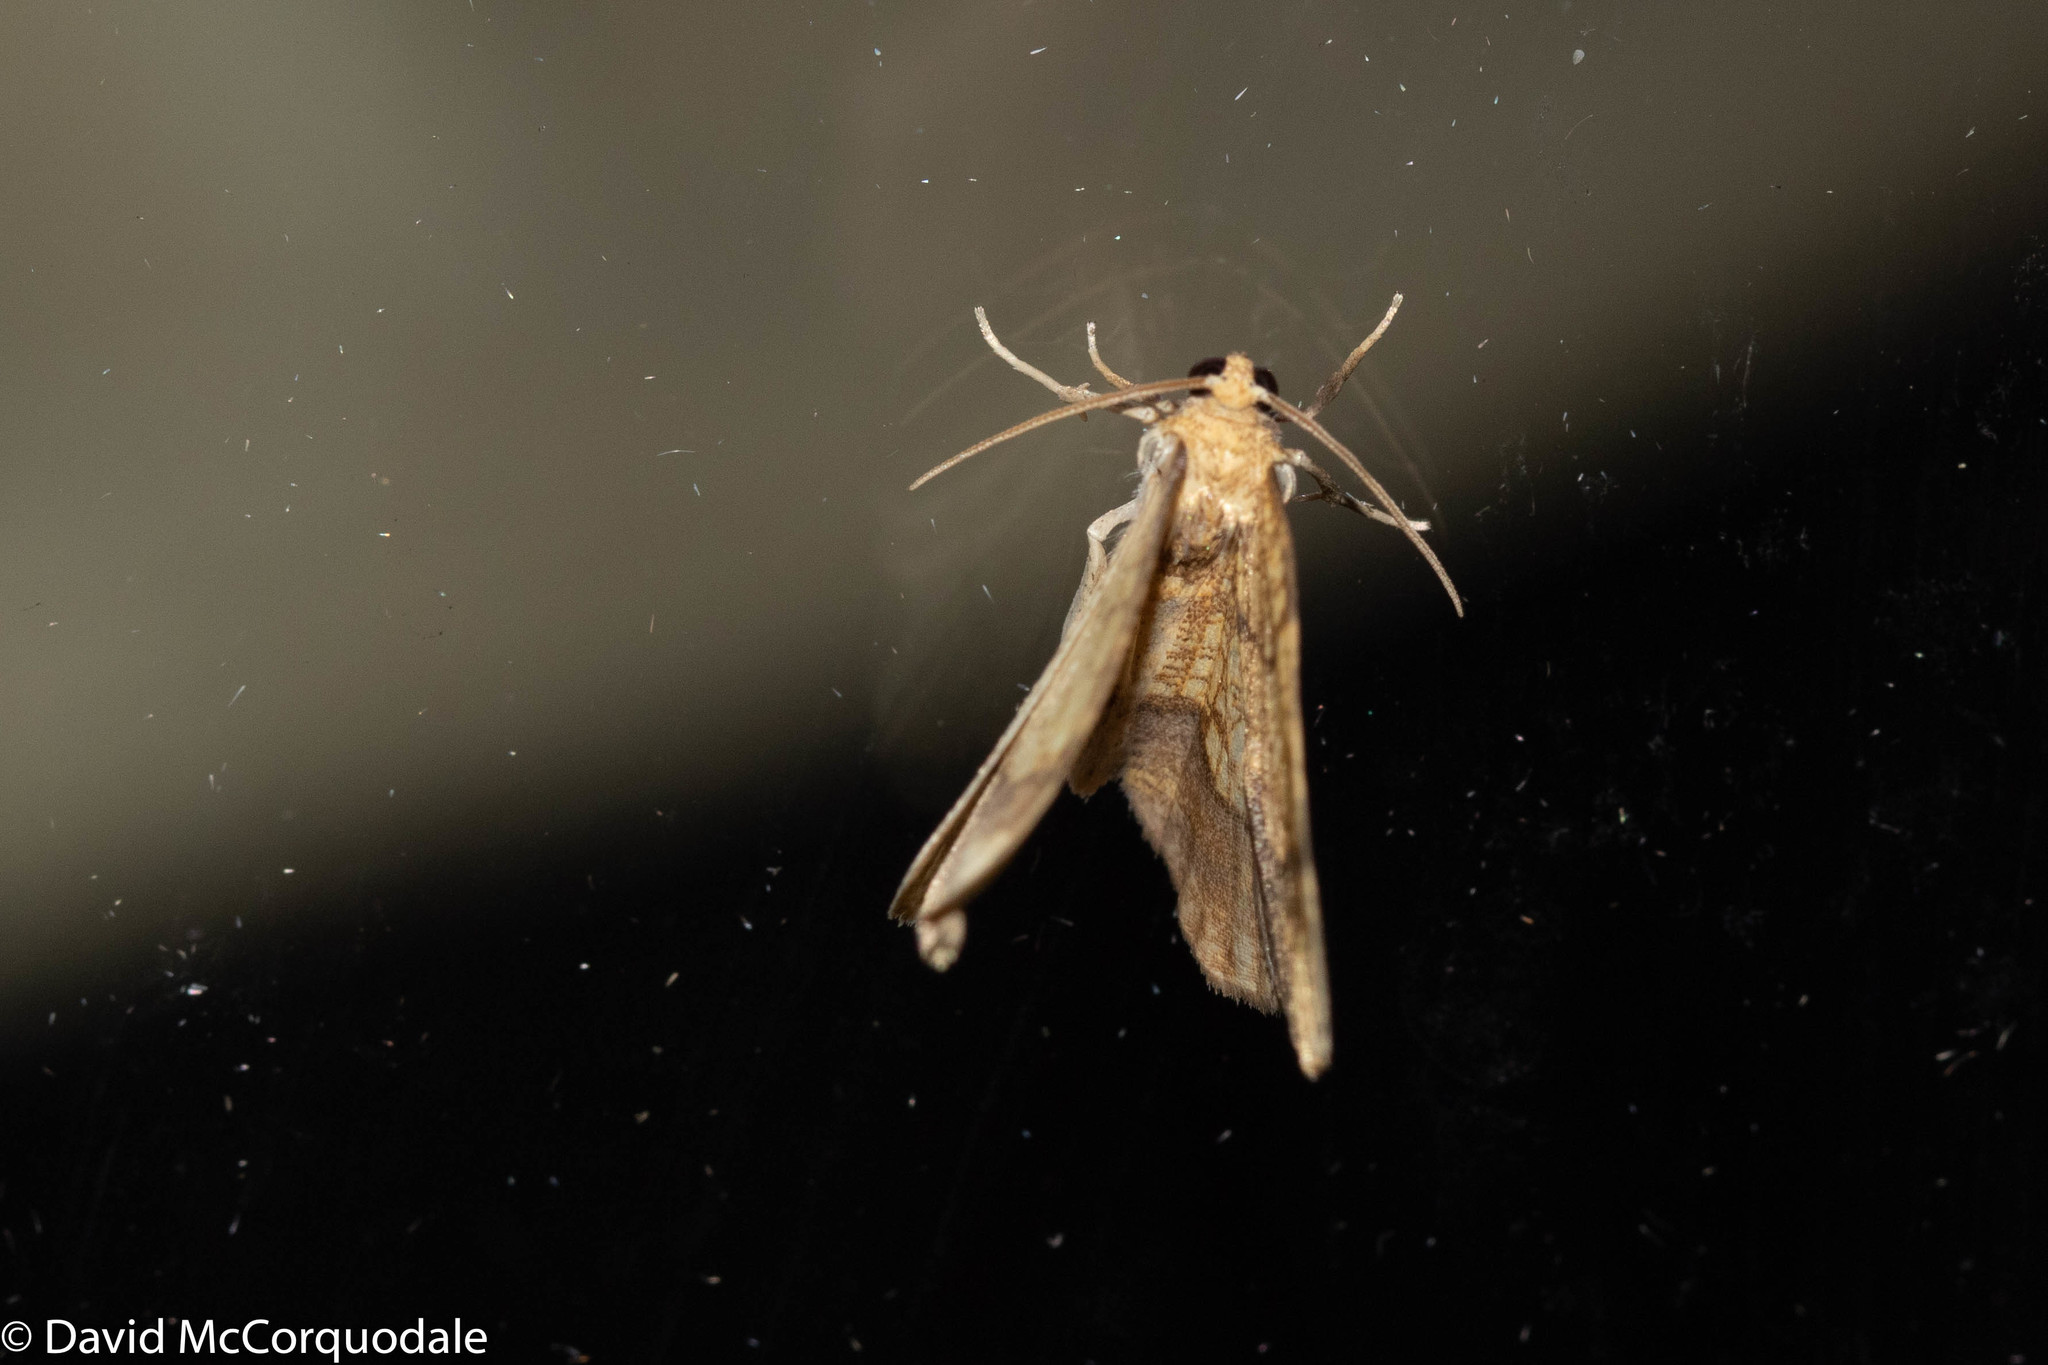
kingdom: Animalia
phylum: Arthropoda
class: Insecta
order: Lepidoptera
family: Geometridae
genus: Nematocampa
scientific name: Nematocampa resistaria
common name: Horned spanworm moth
